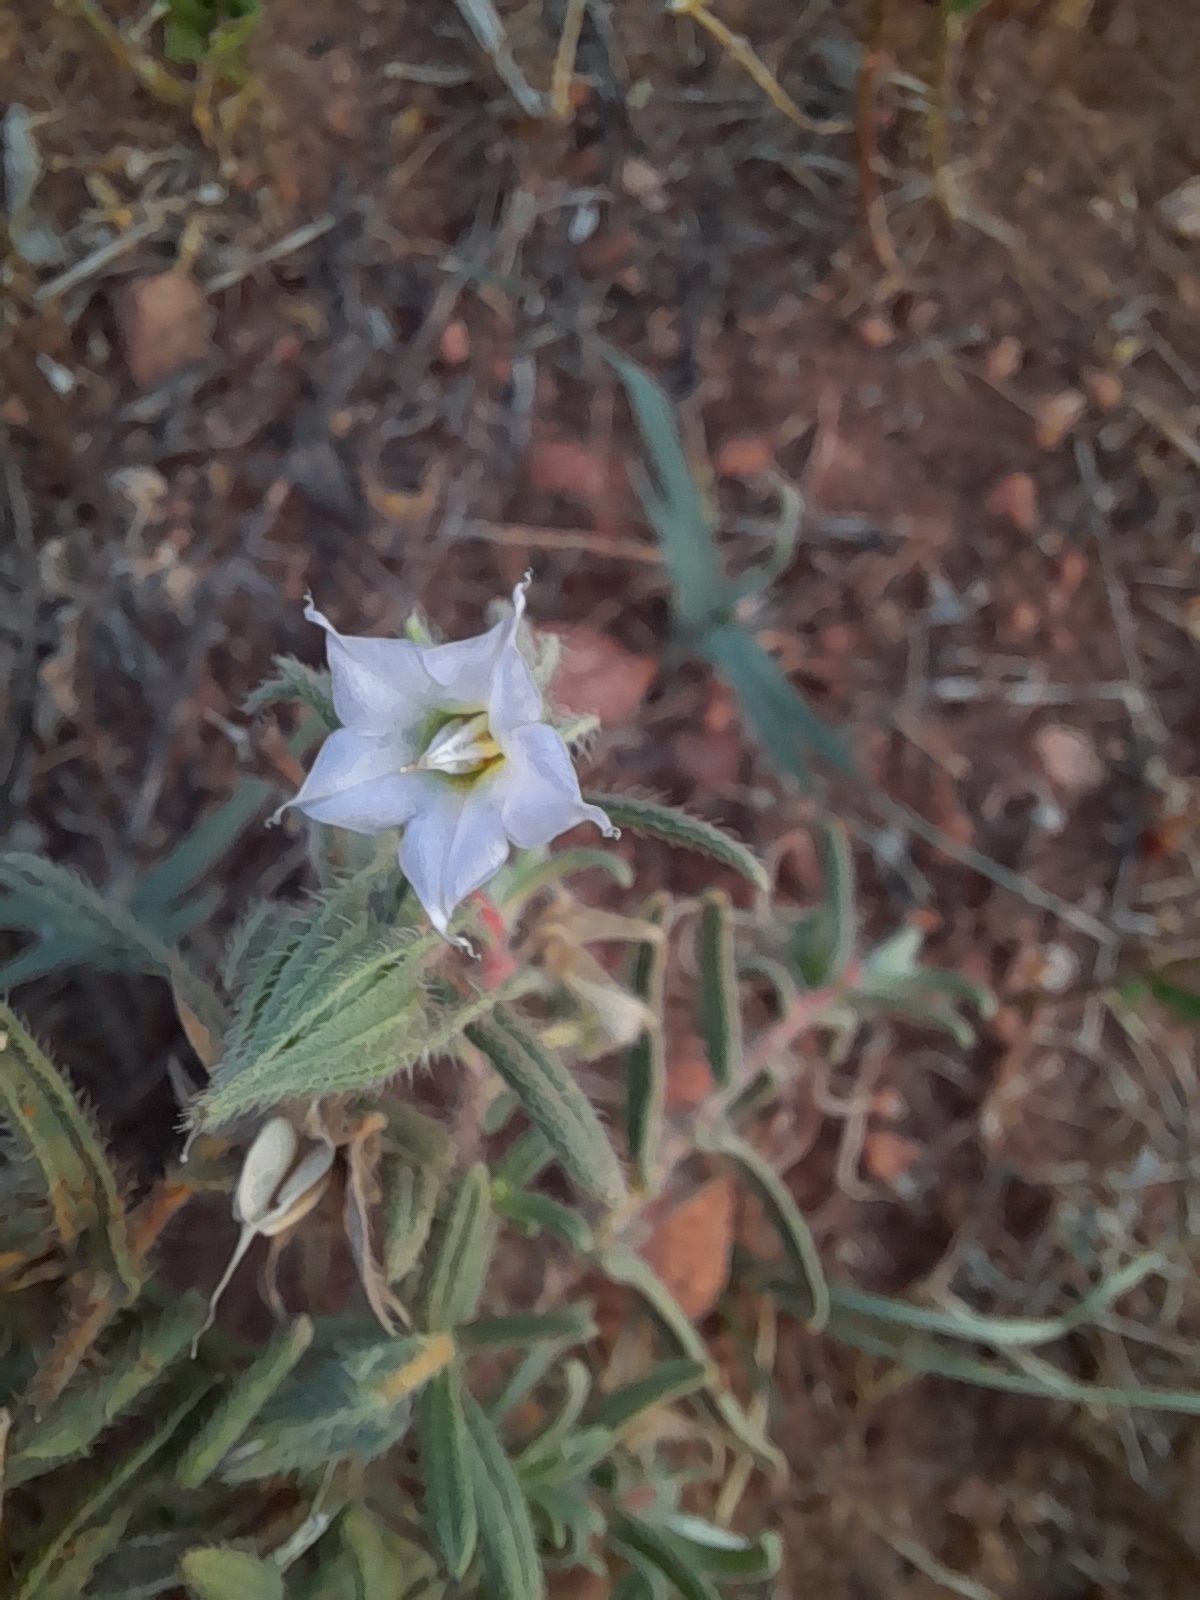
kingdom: Plantae
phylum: Tracheophyta
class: Magnoliopsida
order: Boraginales
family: Boraginaceae
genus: Trichodesma
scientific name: Trichodesma zeylanicum
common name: Camelbush
